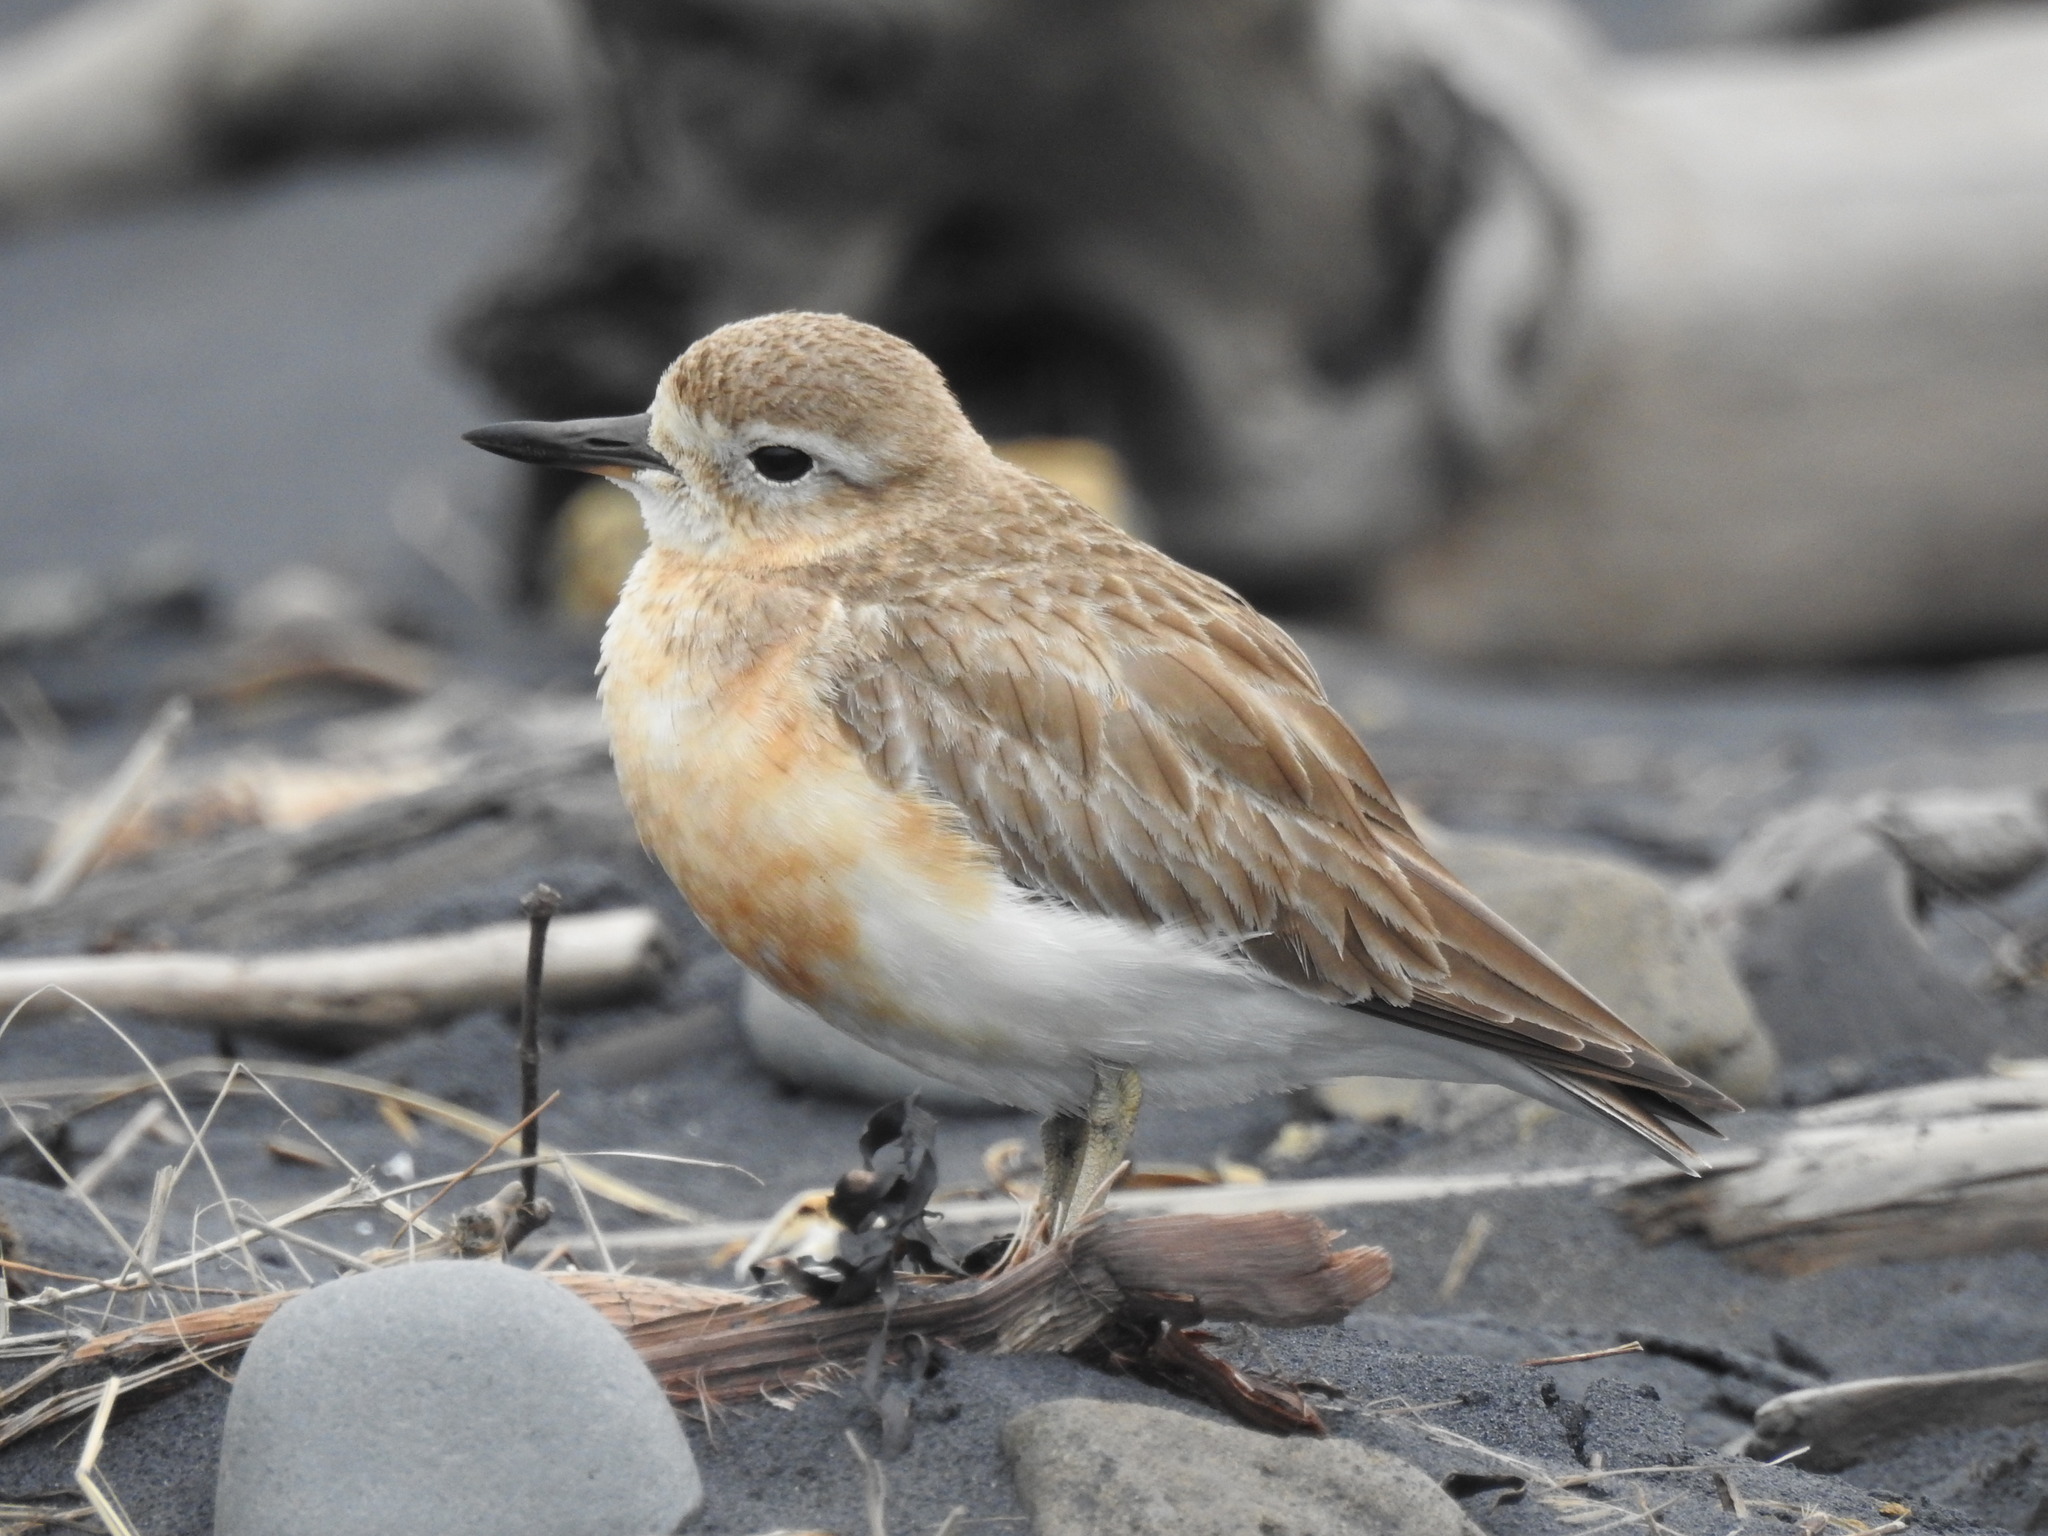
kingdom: Animalia
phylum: Chordata
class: Aves
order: Charadriiformes
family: Charadriidae
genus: Anarhynchus
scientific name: Anarhynchus
